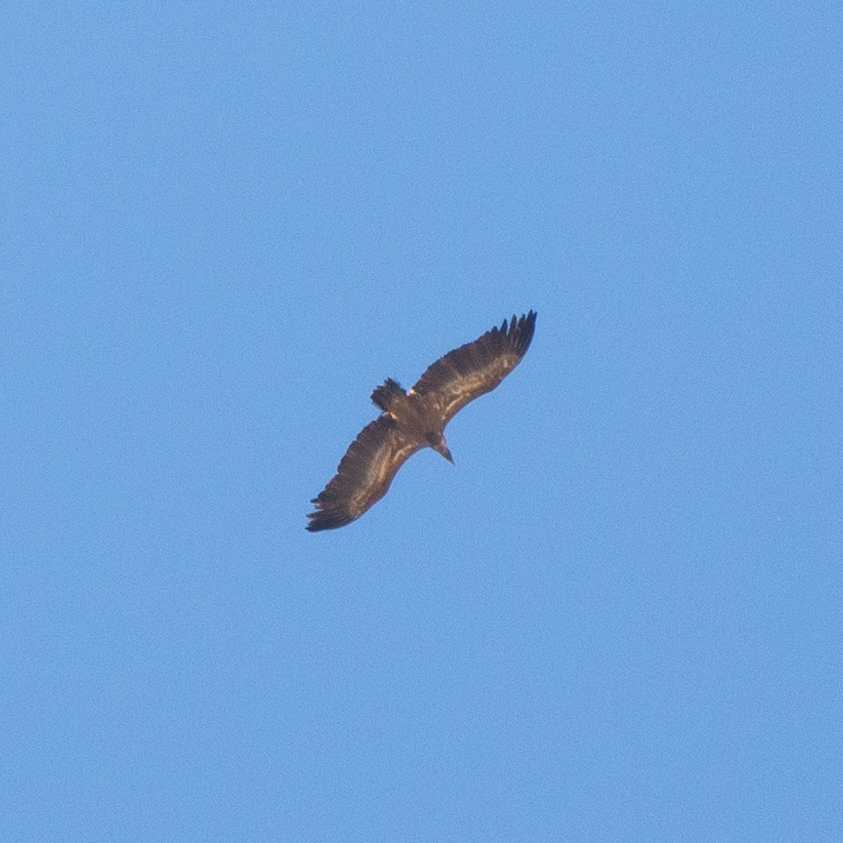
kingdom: Animalia
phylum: Chordata
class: Aves
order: Accipitriformes
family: Accipitridae
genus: Gyps
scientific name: Gyps fulvus
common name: Griffon vulture
